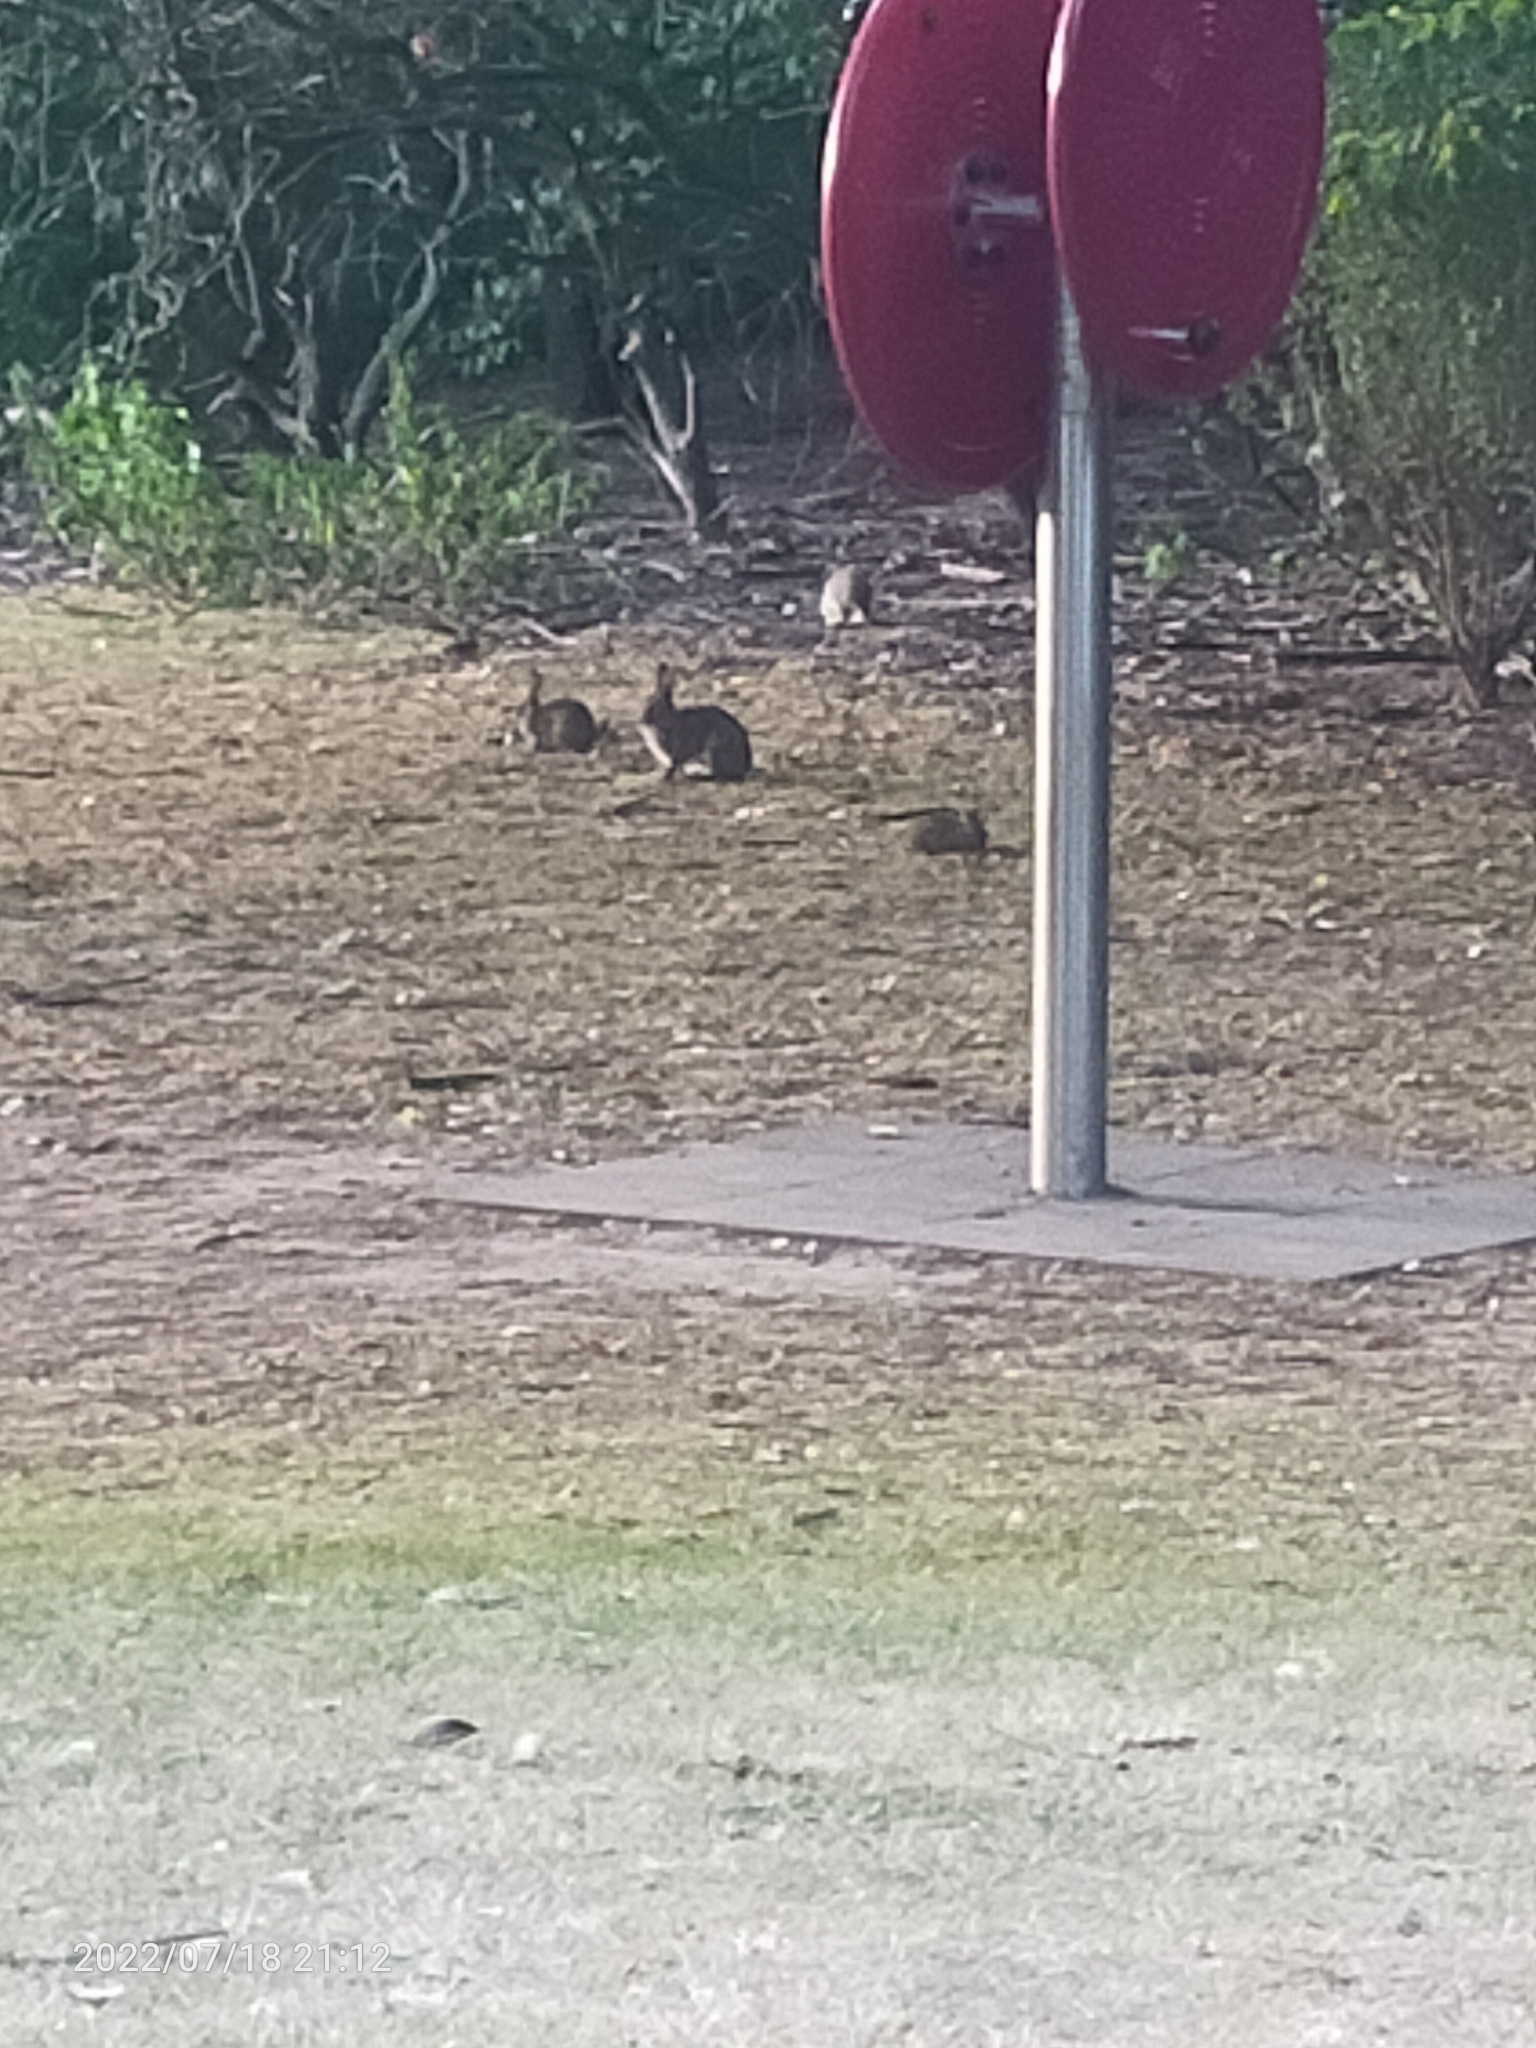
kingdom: Animalia
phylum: Chordata
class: Mammalia
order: Lagomorpha
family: Leporidae
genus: Oryctolagus
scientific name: Oryctolagus cuniculus
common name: European rabbit
